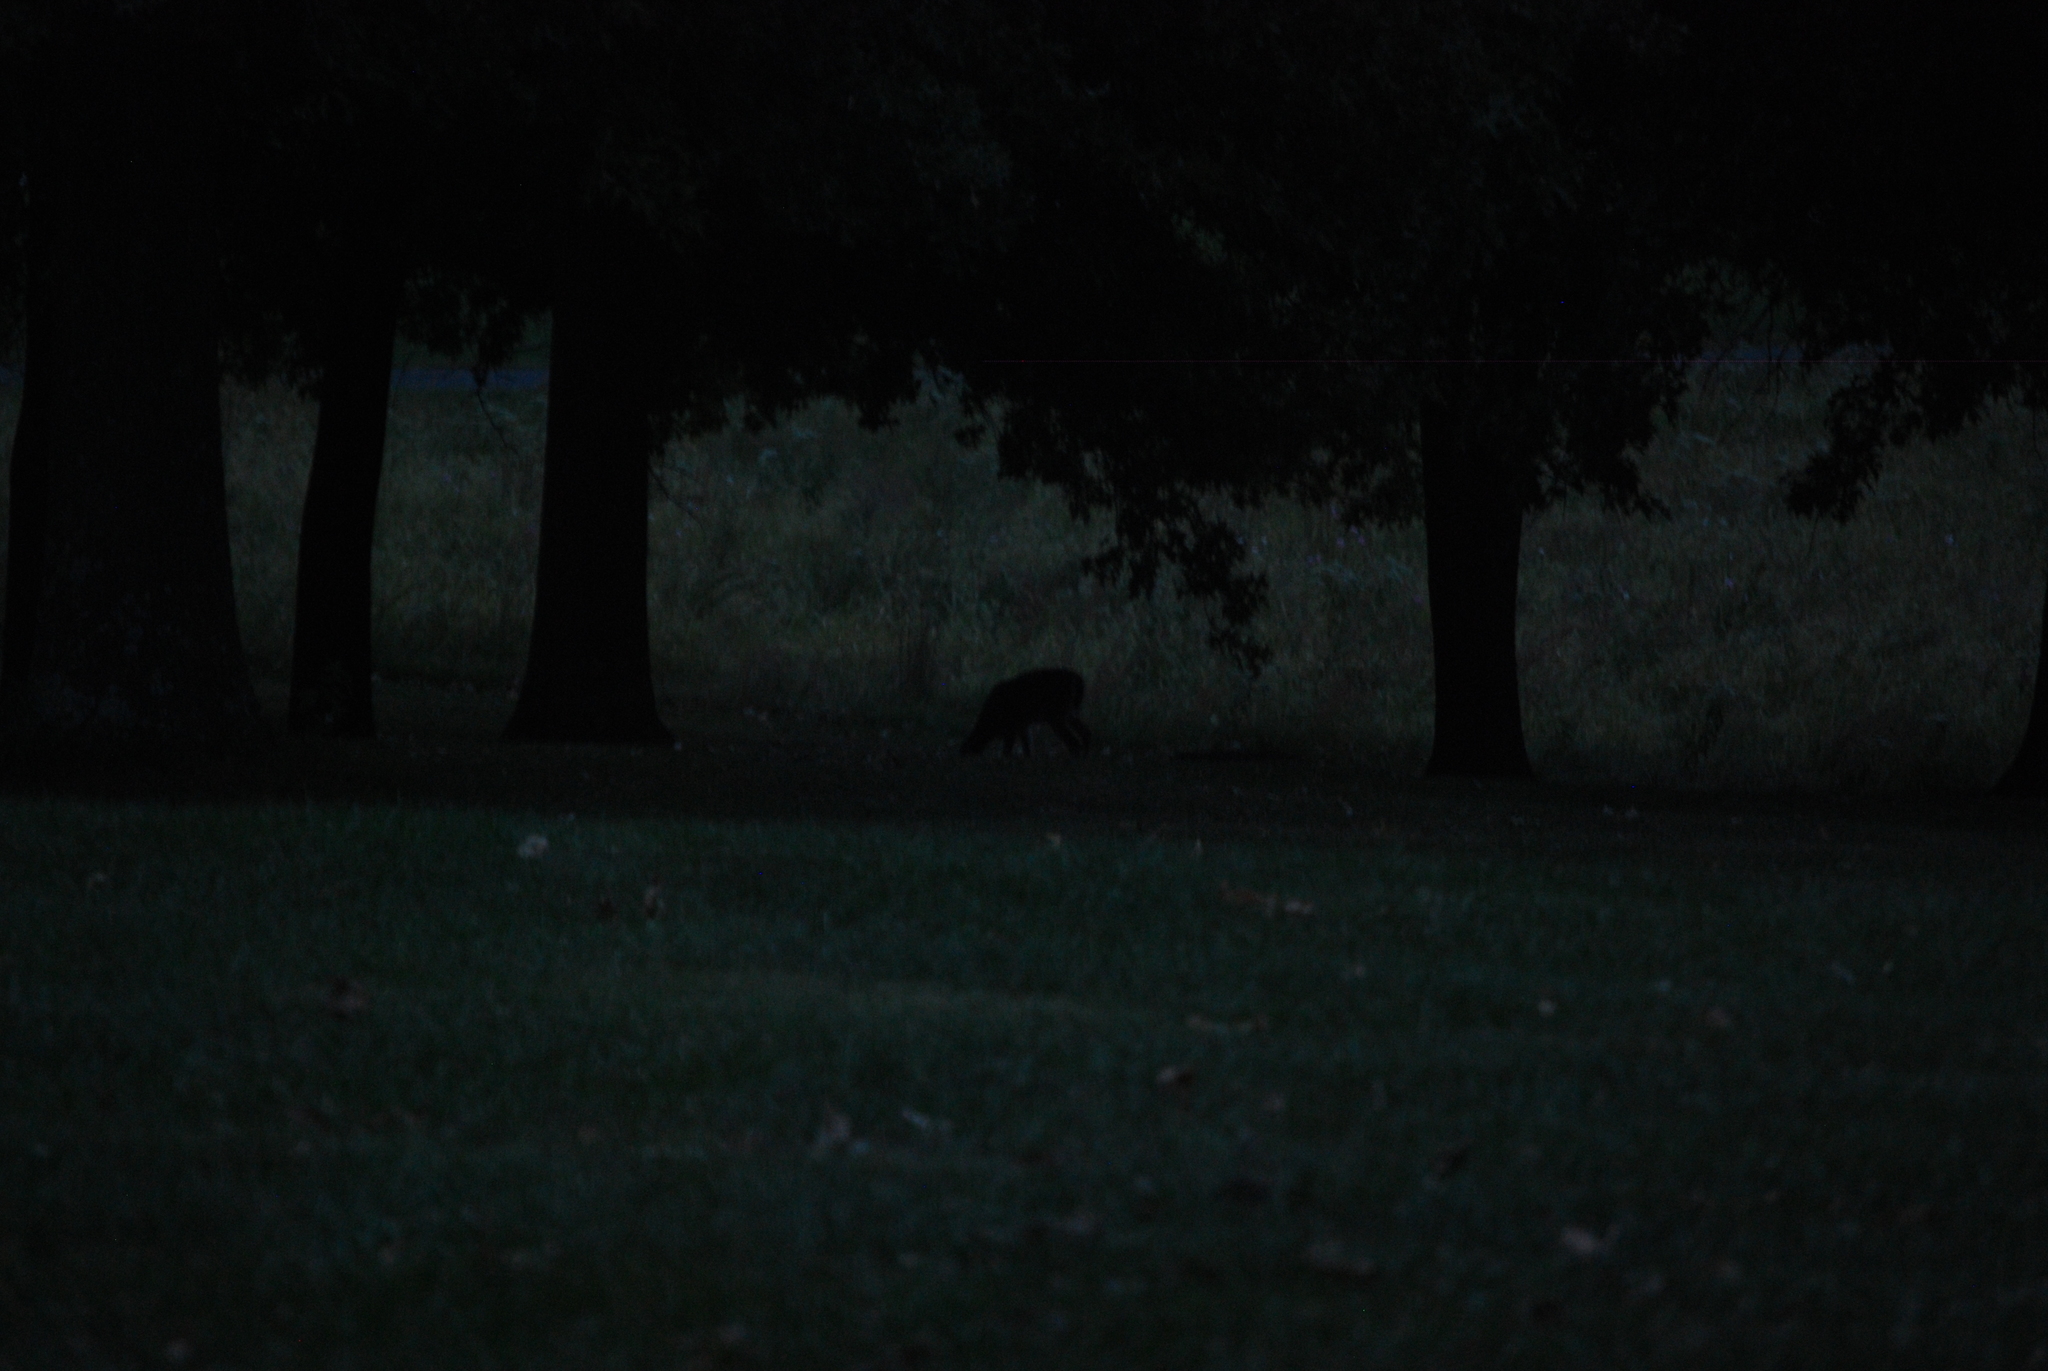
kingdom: Animalia
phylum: Chordata
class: Mammalia
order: Artiodactyla
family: Cervidae
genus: Odocoileus
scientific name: Odocoileus virginianus
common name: White-tailed deer
